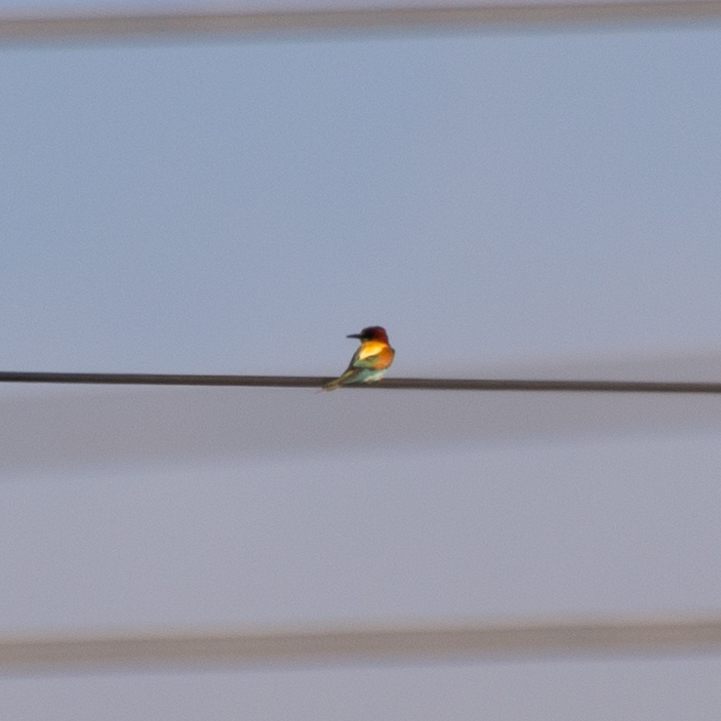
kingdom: Animalia
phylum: Chordata
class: Aves
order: Coraciiformes
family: Meropidae
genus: Merops
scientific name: Merops apiaster
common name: European bee-eater
